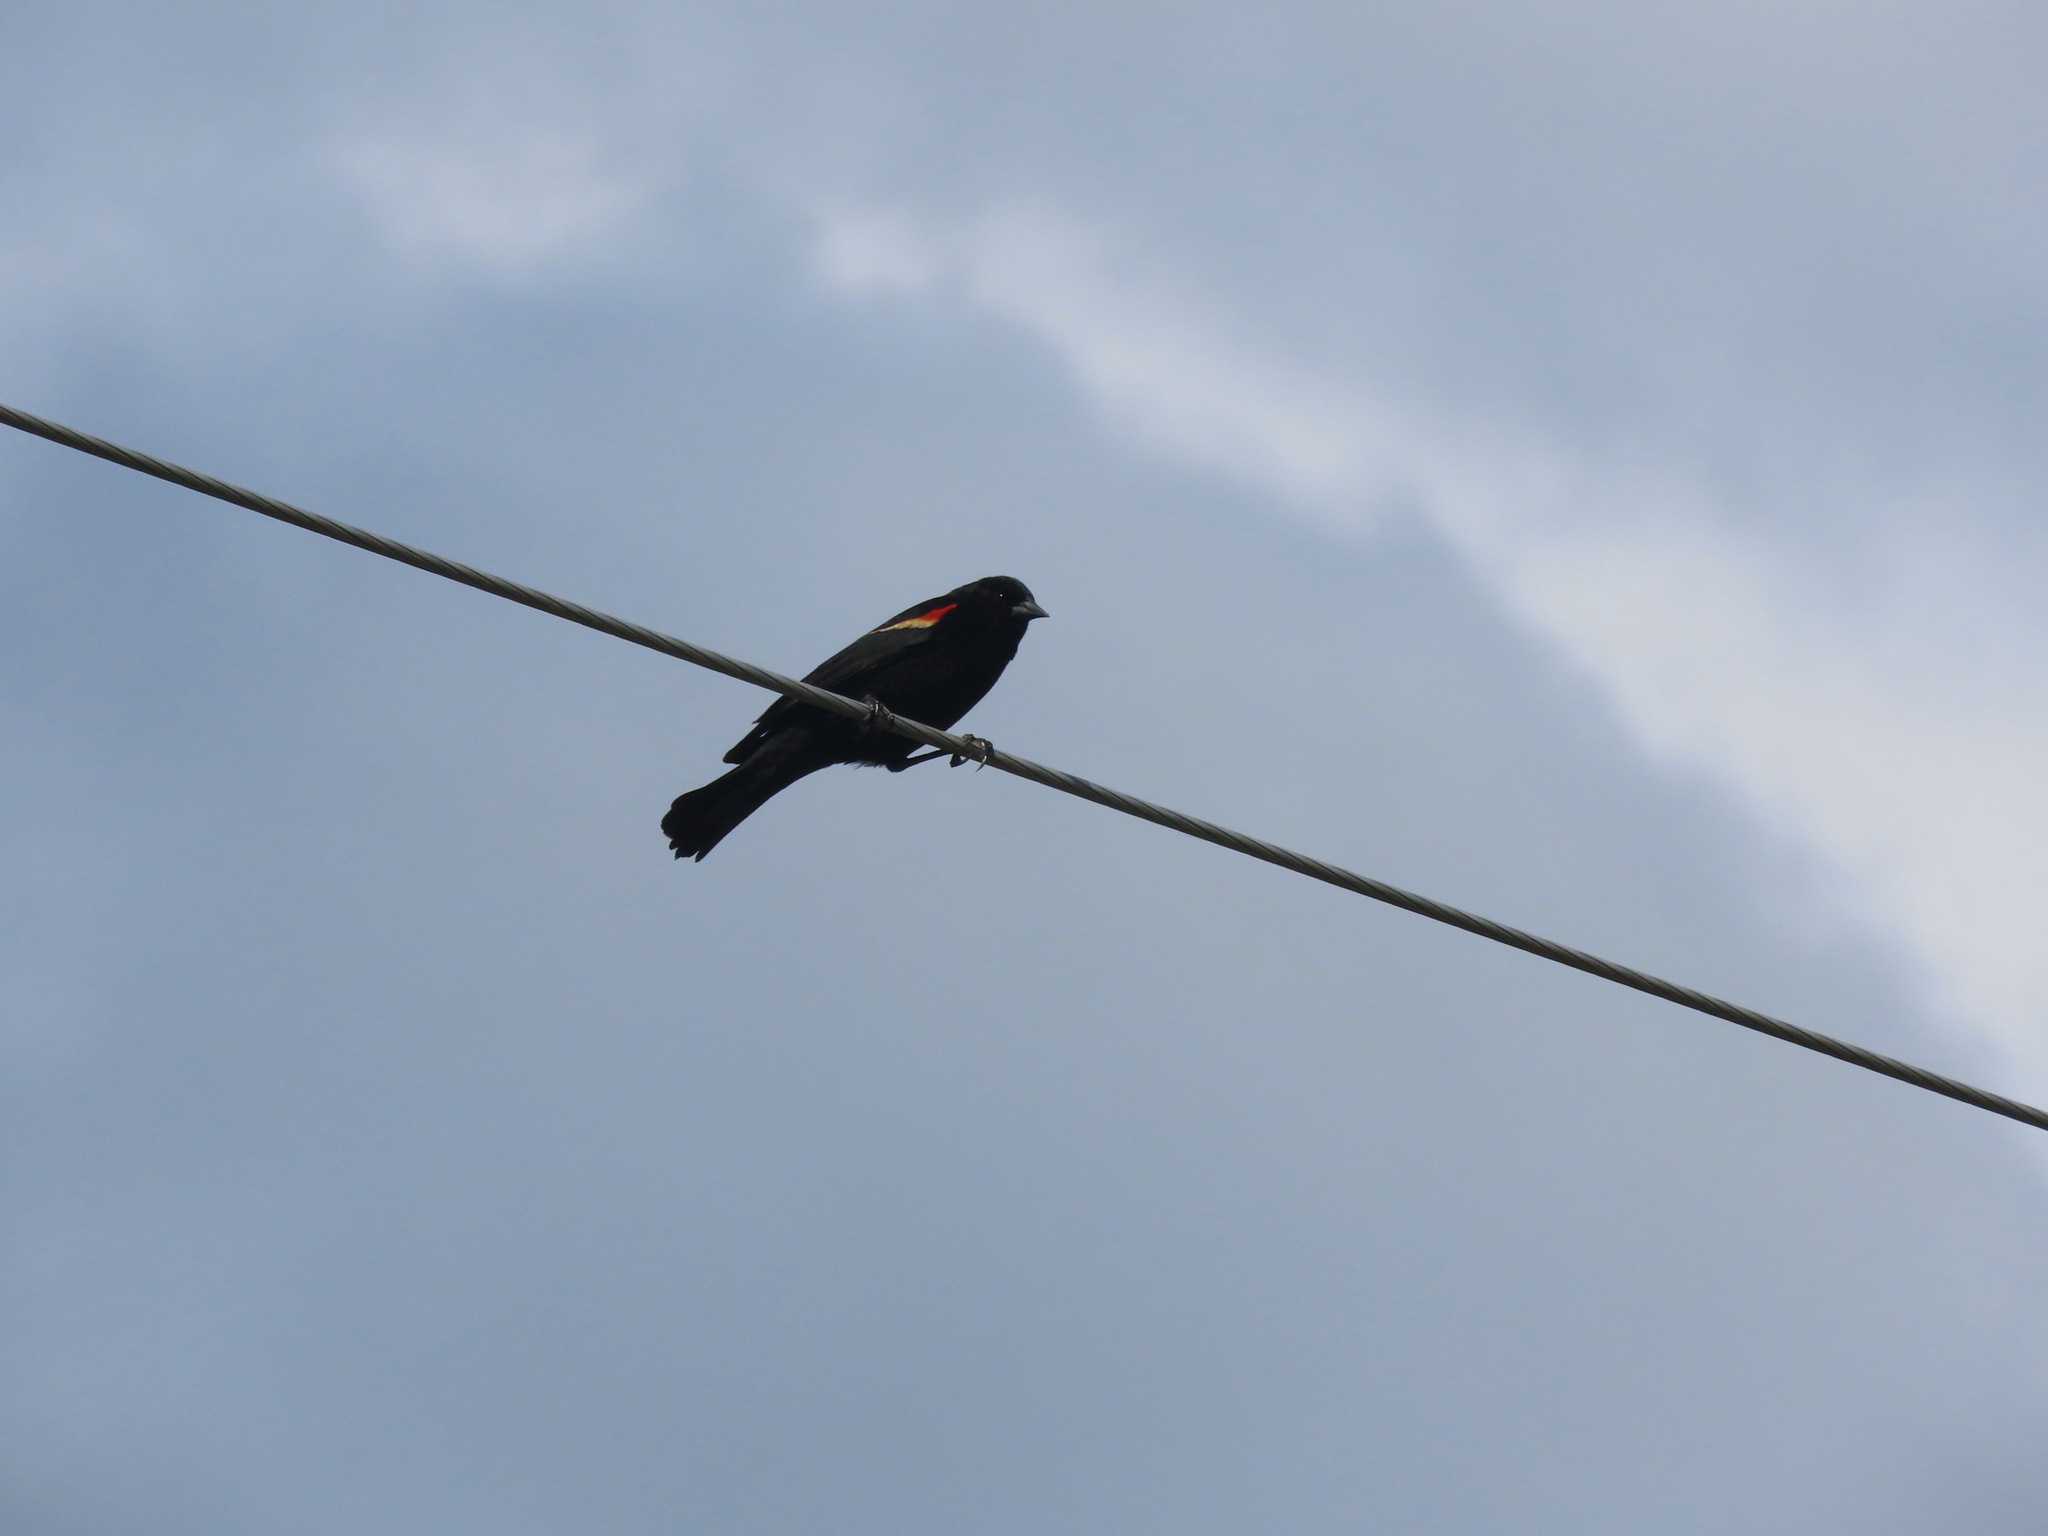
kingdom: Animalia
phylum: Chordata
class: Aves
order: Passeriformes
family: Icteridae
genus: Agelaius
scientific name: Agelaius phoeniceus
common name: Red-winged blackbird
